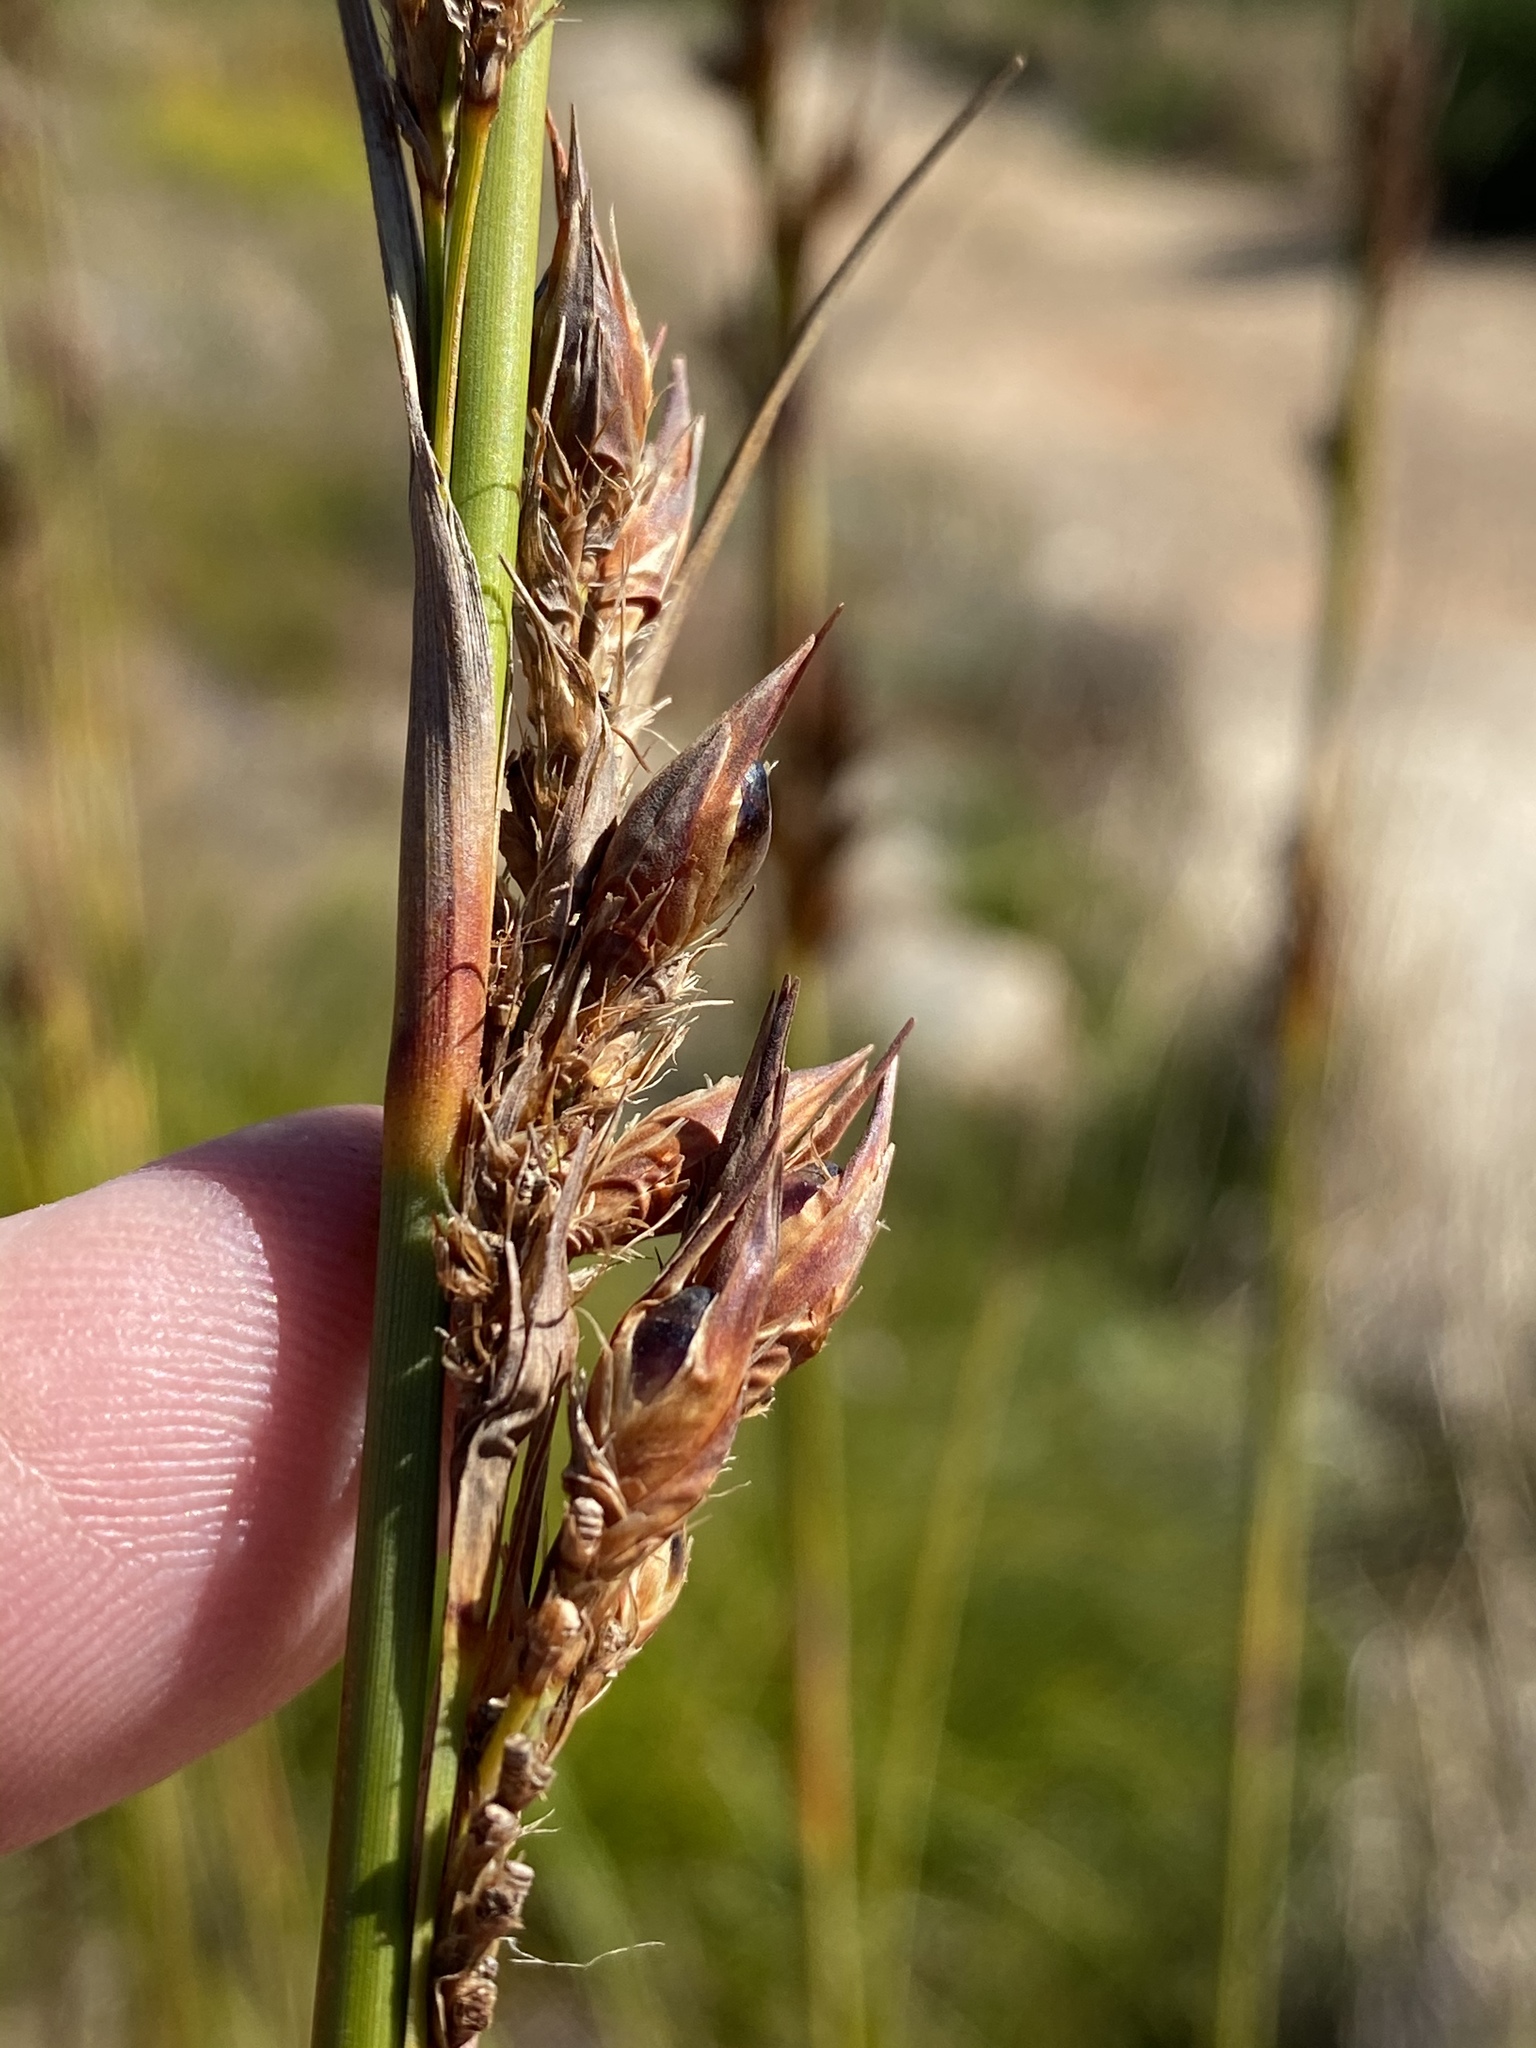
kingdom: Plantae
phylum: Tracheophyta
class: Liliopsida
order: Poales
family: Cyperaceae
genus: Tetraria
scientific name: Tetraria involucrata
